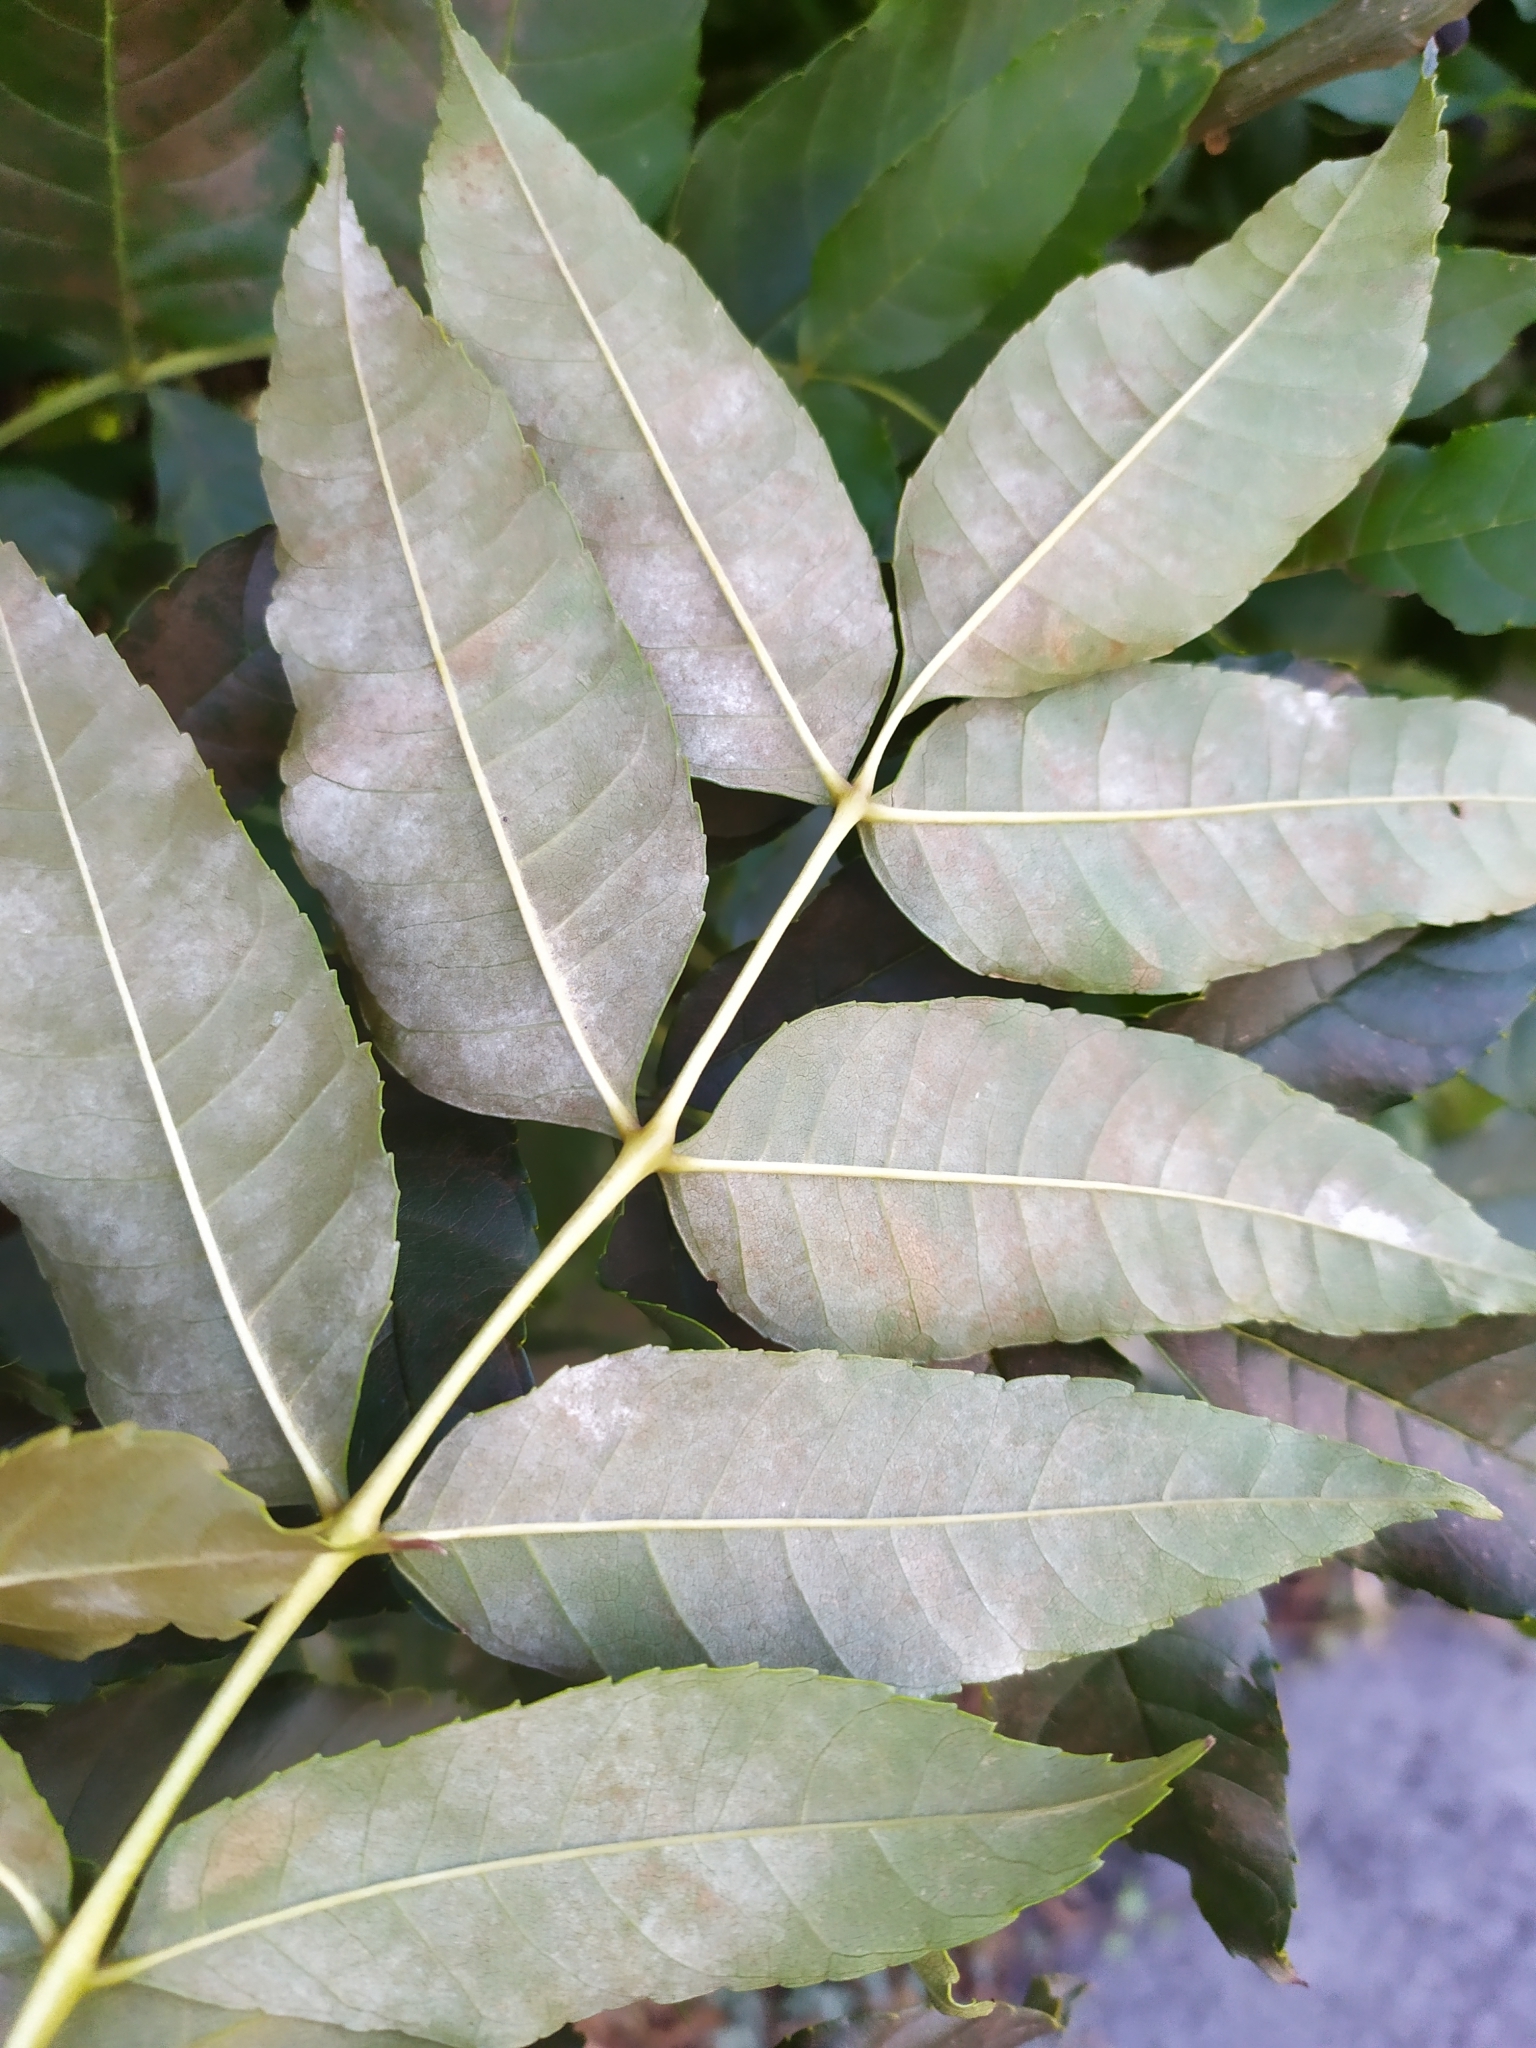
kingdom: Fungi
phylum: Ascomycota
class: Leotiomycetes
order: Helotiales
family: Erysiphaceae
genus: Phyllactinia
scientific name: Phyllactinia fraxini
